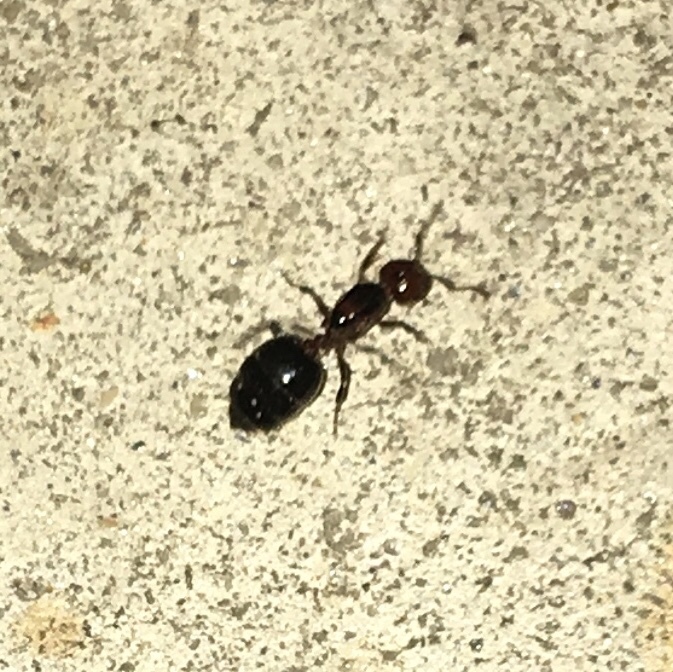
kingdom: Animalia
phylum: Arthropoda
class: Insecta
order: Hymenoptera
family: Formicidae
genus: Crematogaster
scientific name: Crematogaster laeviuscula
